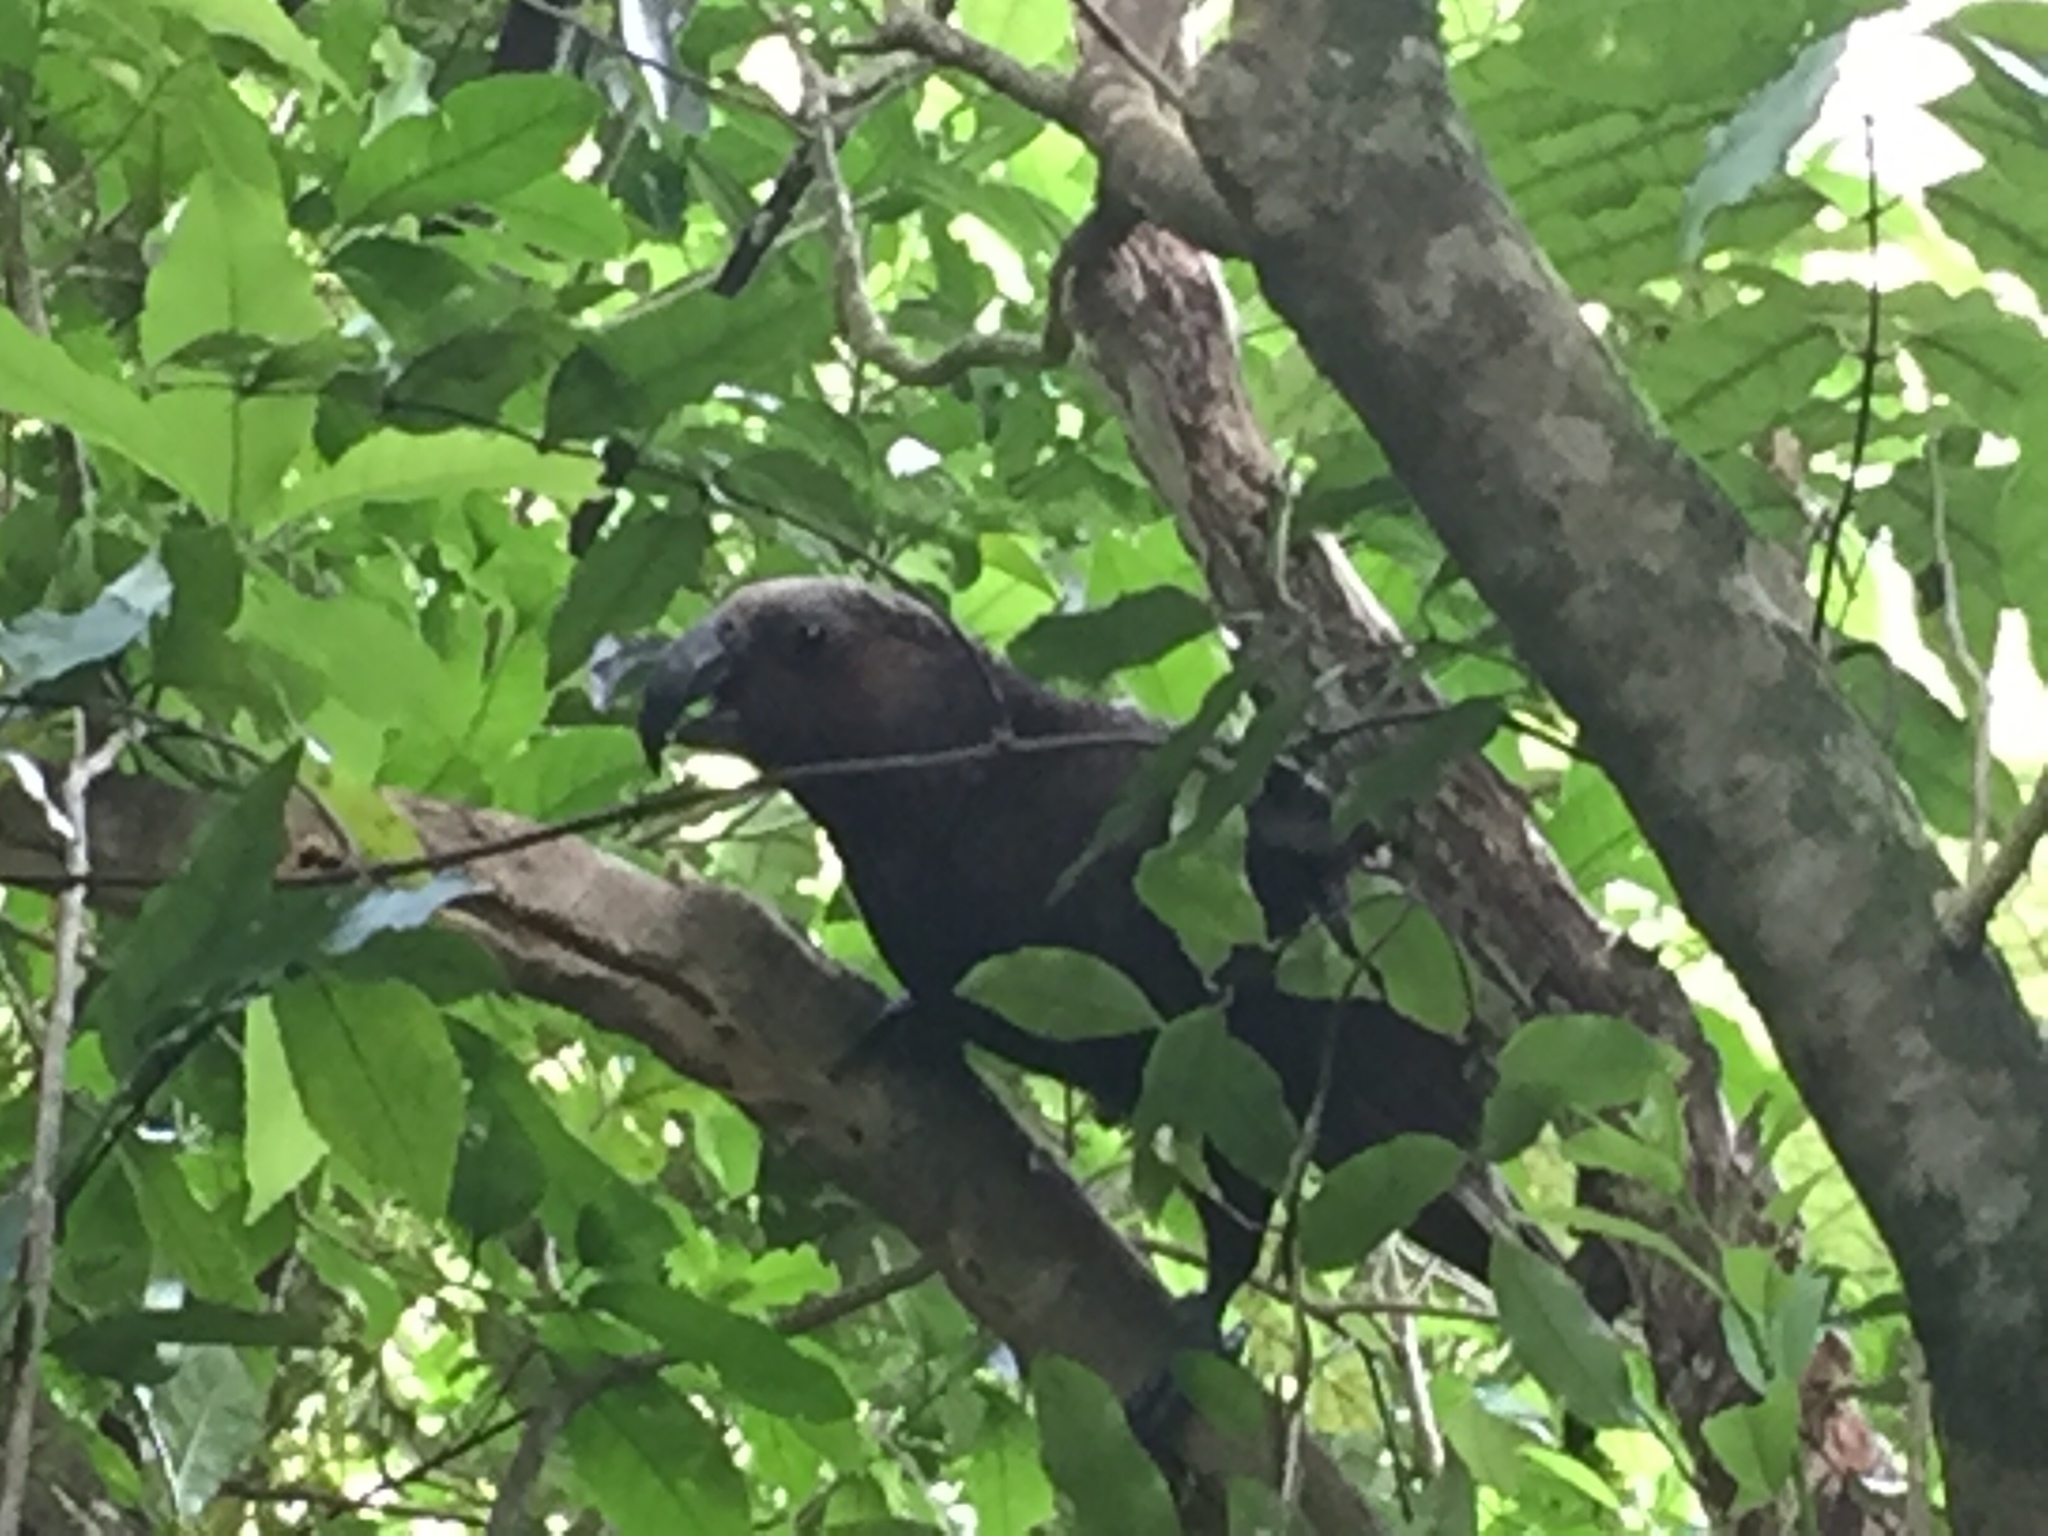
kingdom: Animalia
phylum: Chordata
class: Aves
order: Psittaciformes
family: Psittacidae
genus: Nestor
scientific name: Nestor meridionalis
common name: New zealand kaka
